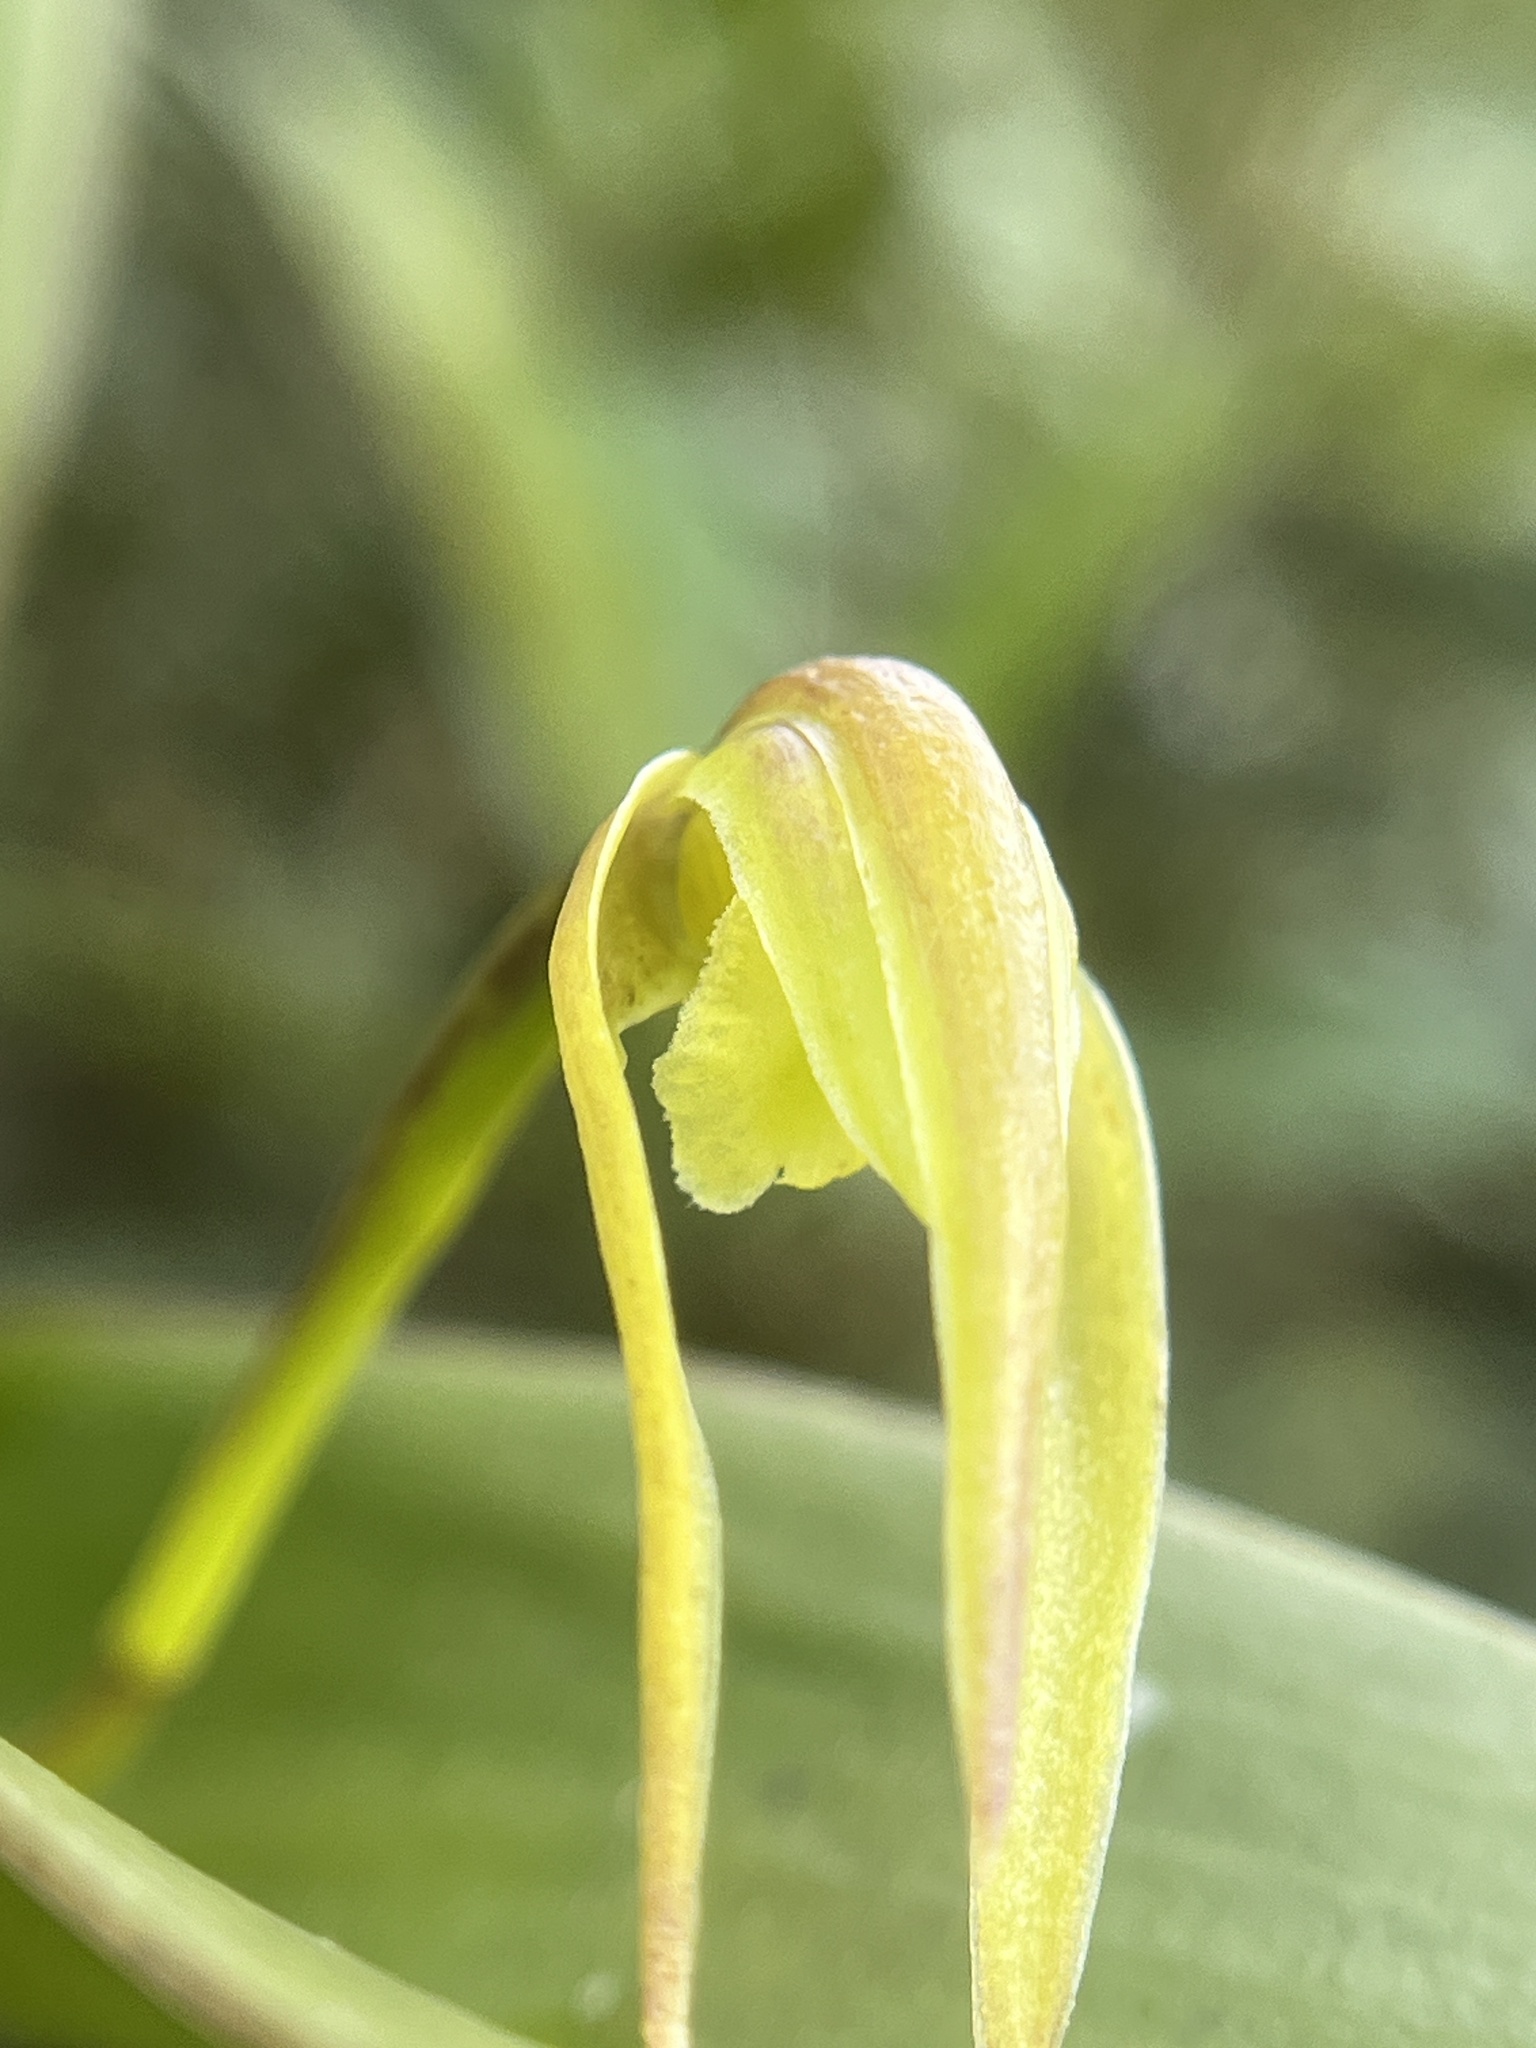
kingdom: Plantae
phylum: Tracheophyta
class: Liliopsida
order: Asparagales
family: Orchidaceae
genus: Maxillaria
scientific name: Maxillaria montezumae
